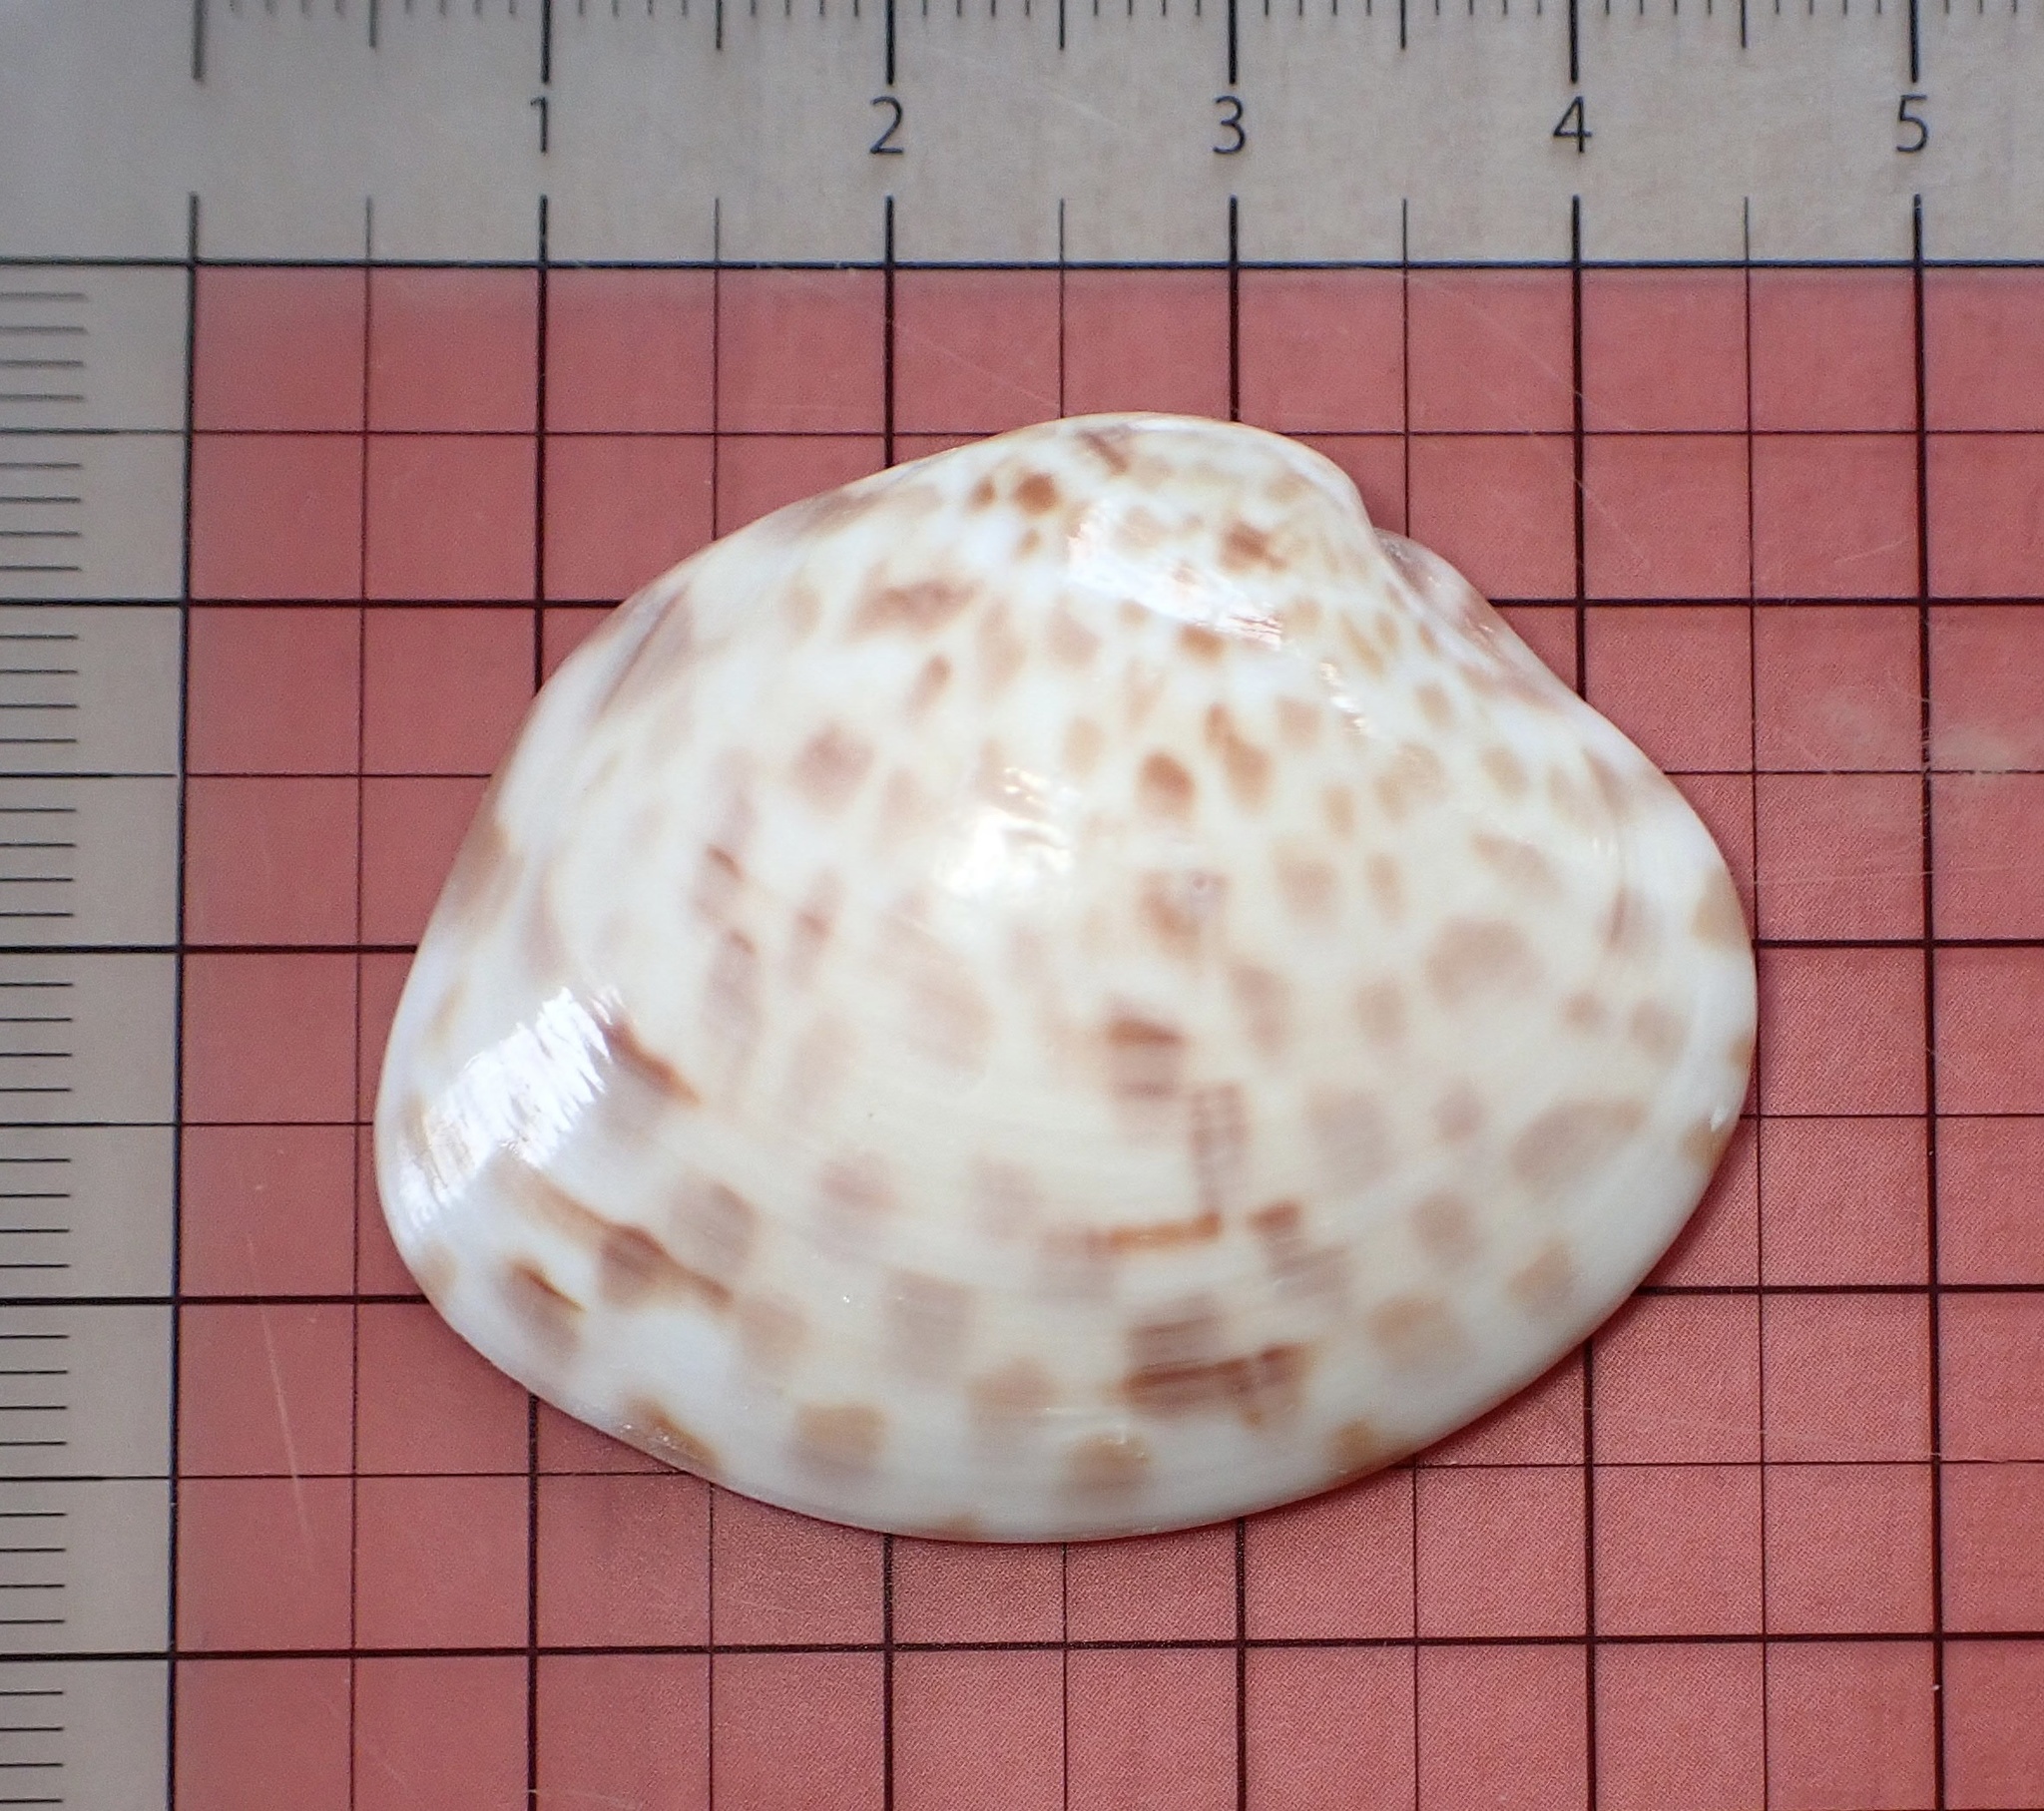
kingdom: Animalia
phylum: Mollusca
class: Bivalvia
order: Venerida
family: Veneridae
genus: Megapitaria
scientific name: Megapitaria maculata
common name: Calico clam
